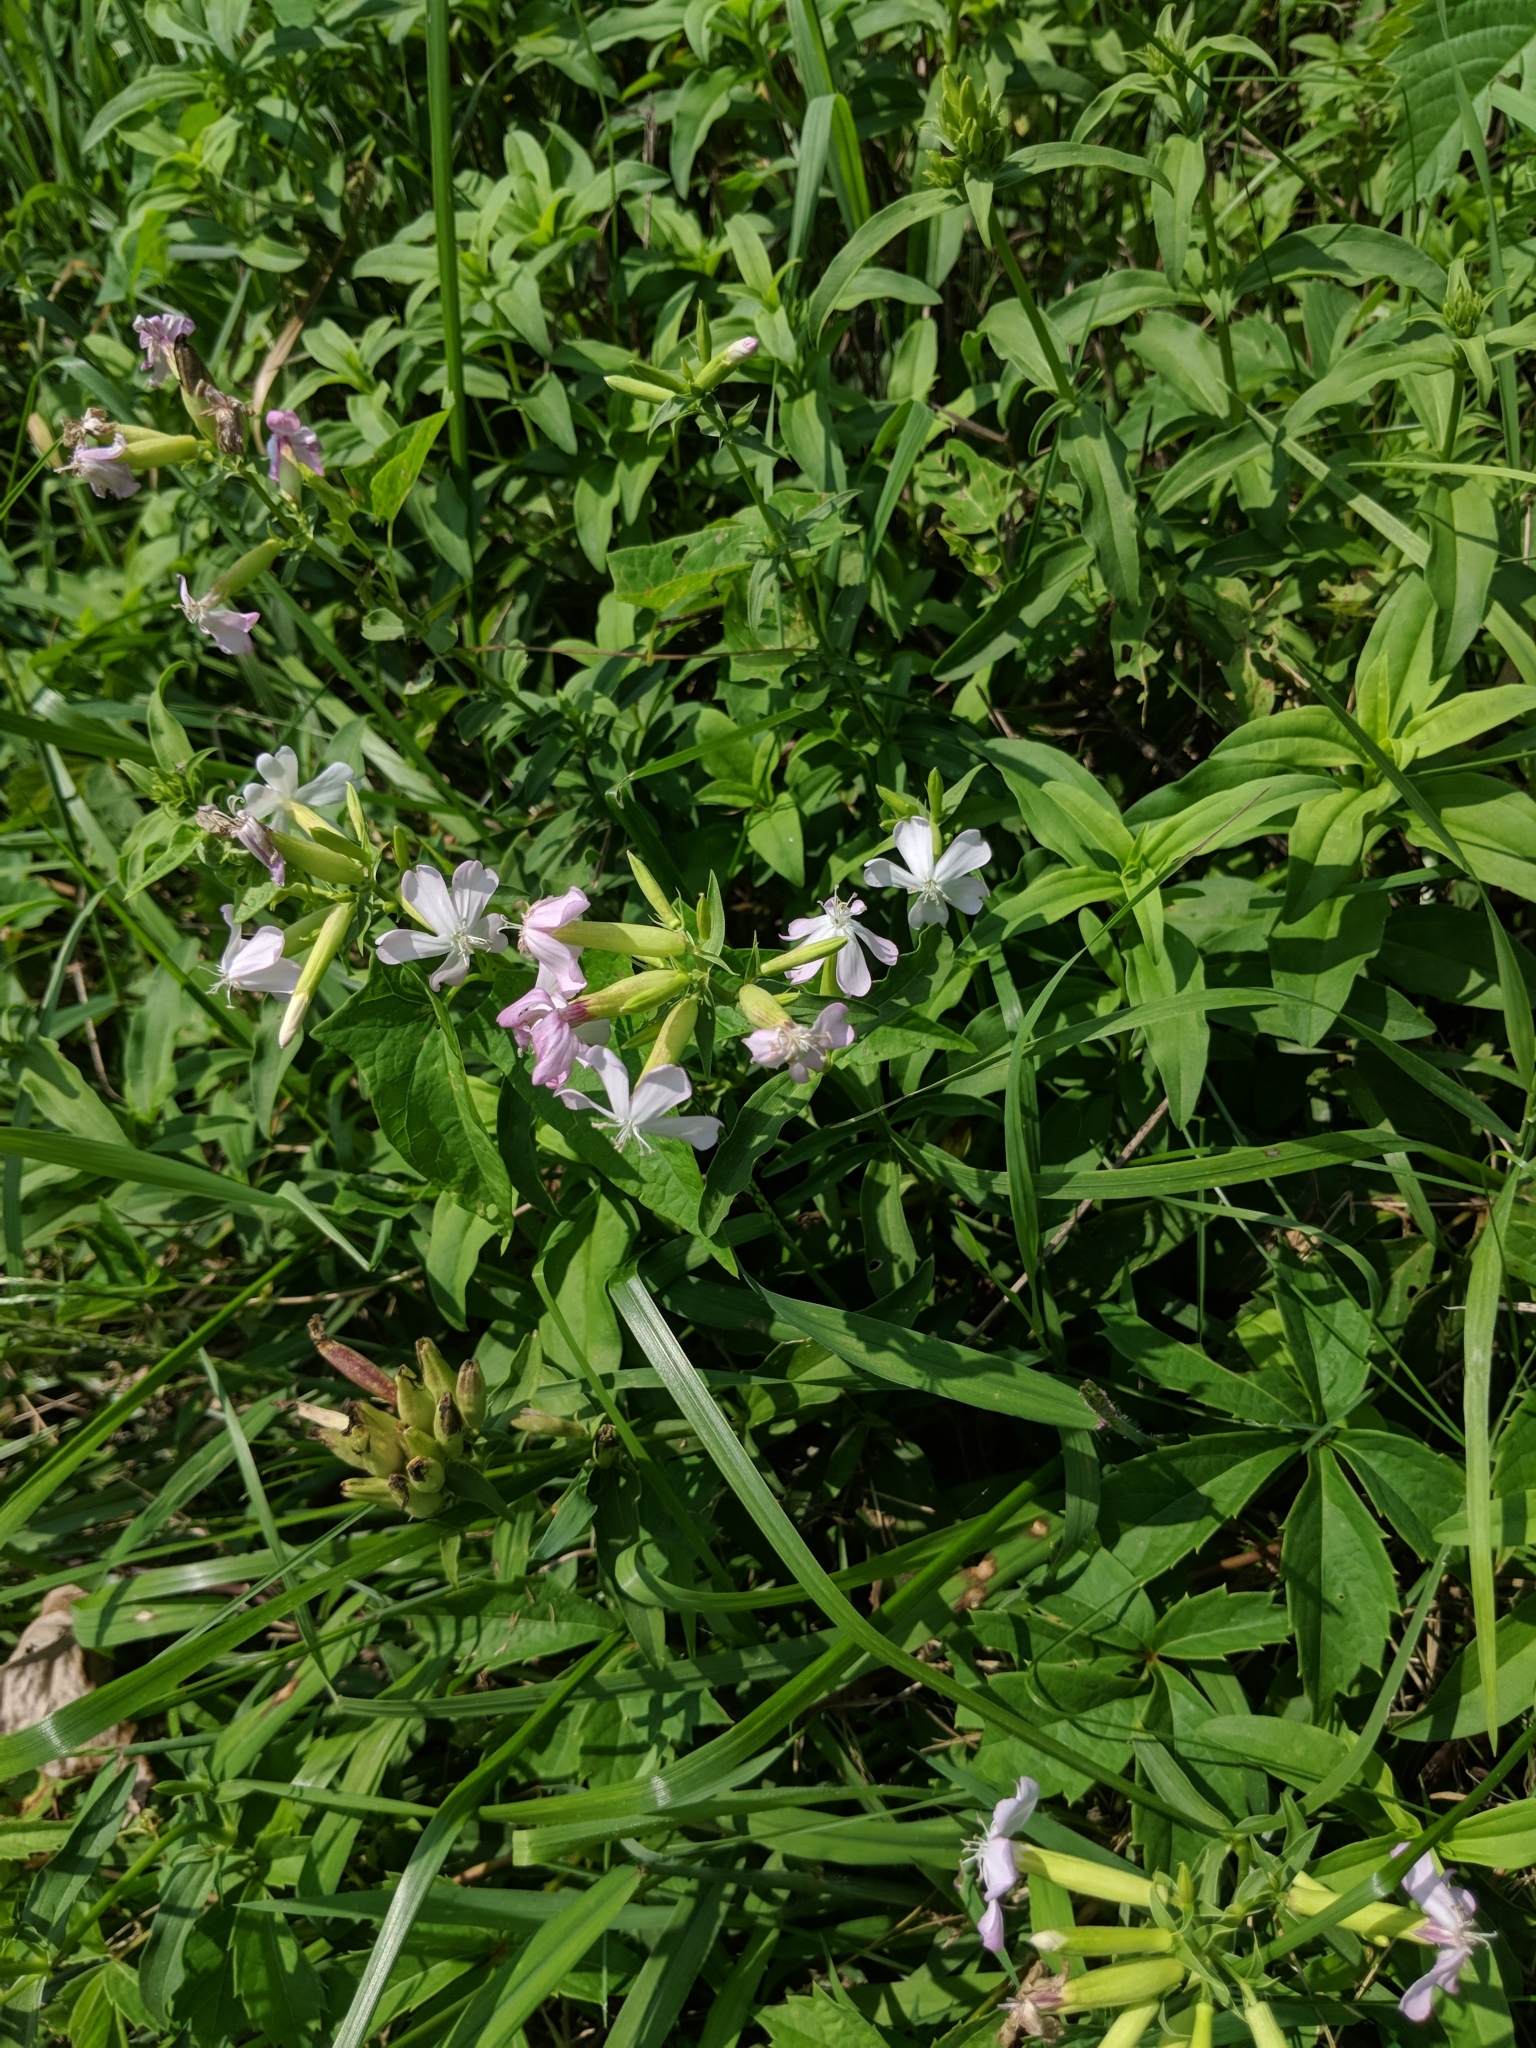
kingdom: Plantae
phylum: Tracheophyta
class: Magnoliopsida
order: Caryophyllales
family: Caryophyllaceae
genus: Saponaria
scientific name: Saponaria officinalis
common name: Soapwort
